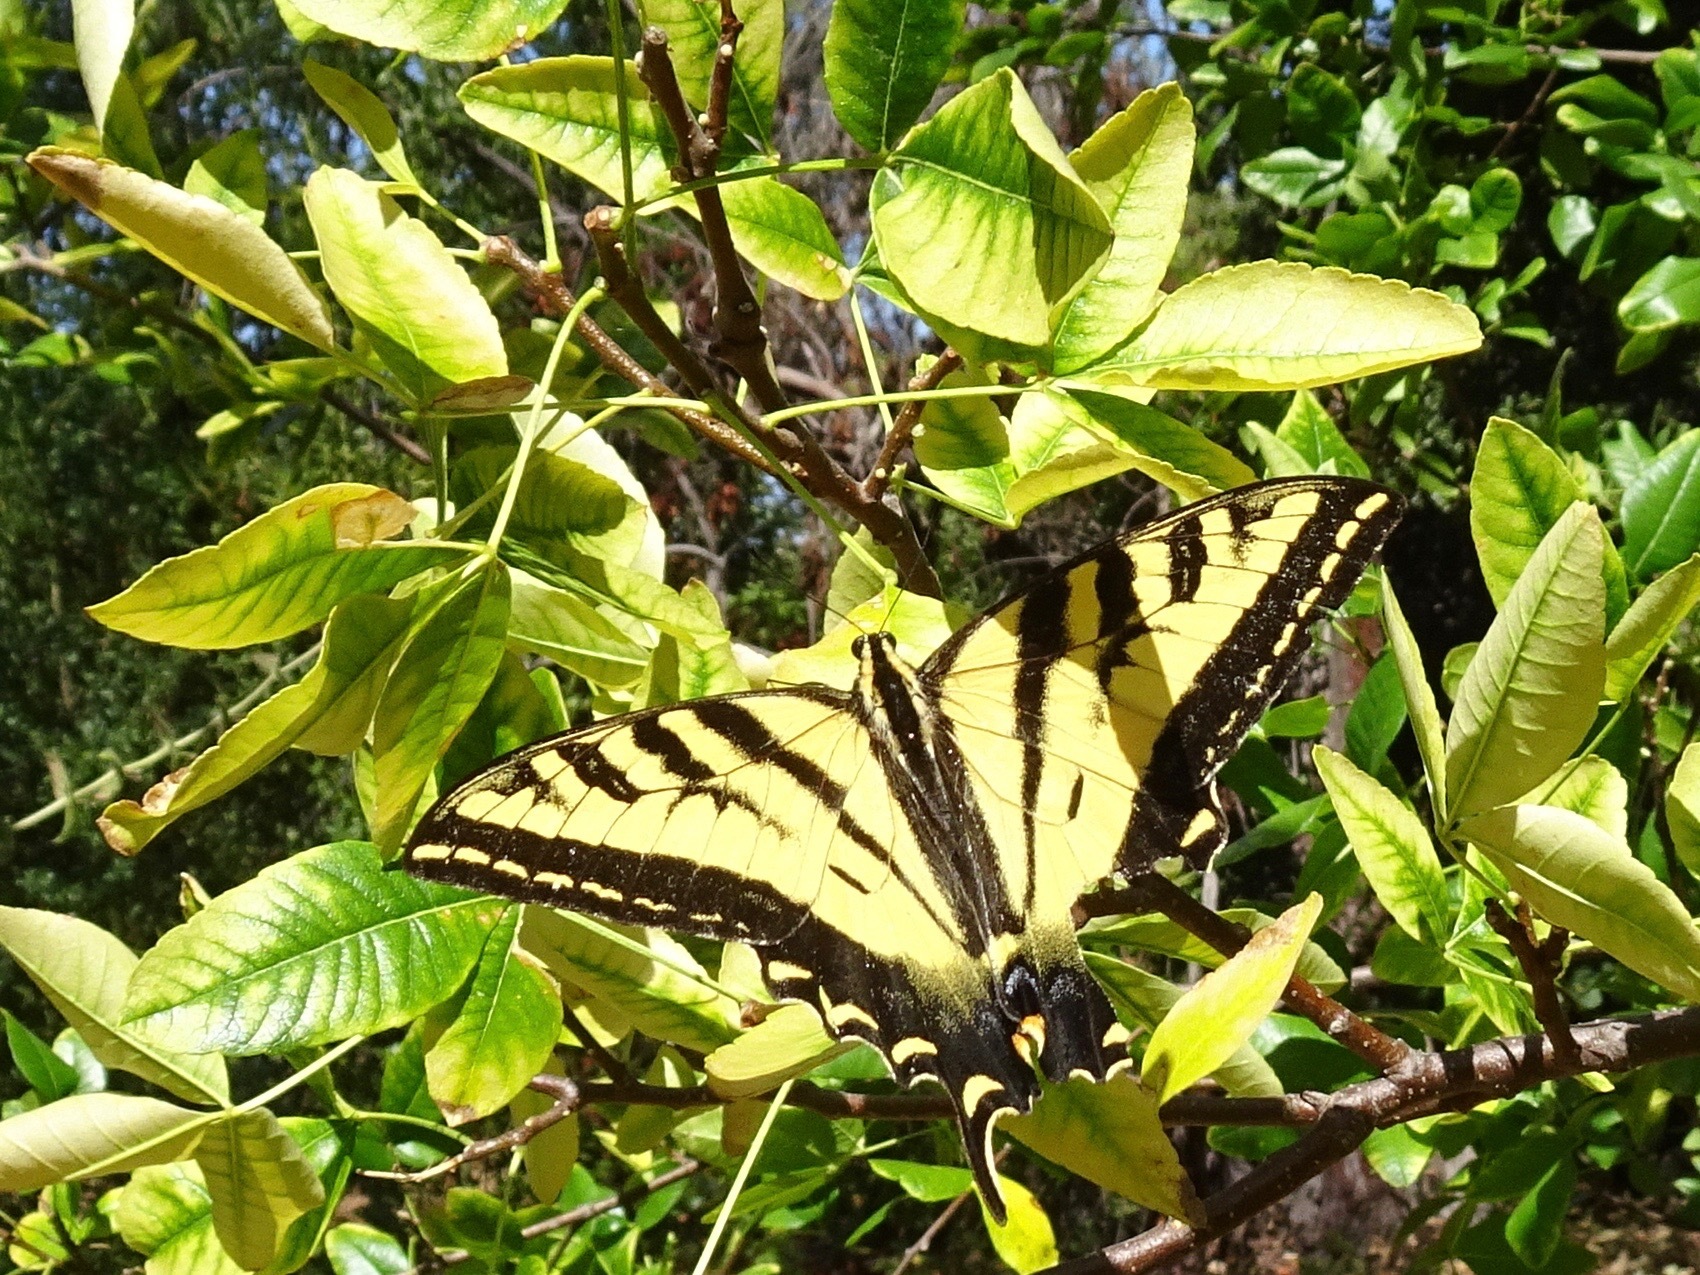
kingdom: Animalia
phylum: Arthropoda
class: Insecta
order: Lepidoptera
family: Papilionidae
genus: Papilio
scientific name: Papilio rutulus
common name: Western tiger swallowtail
